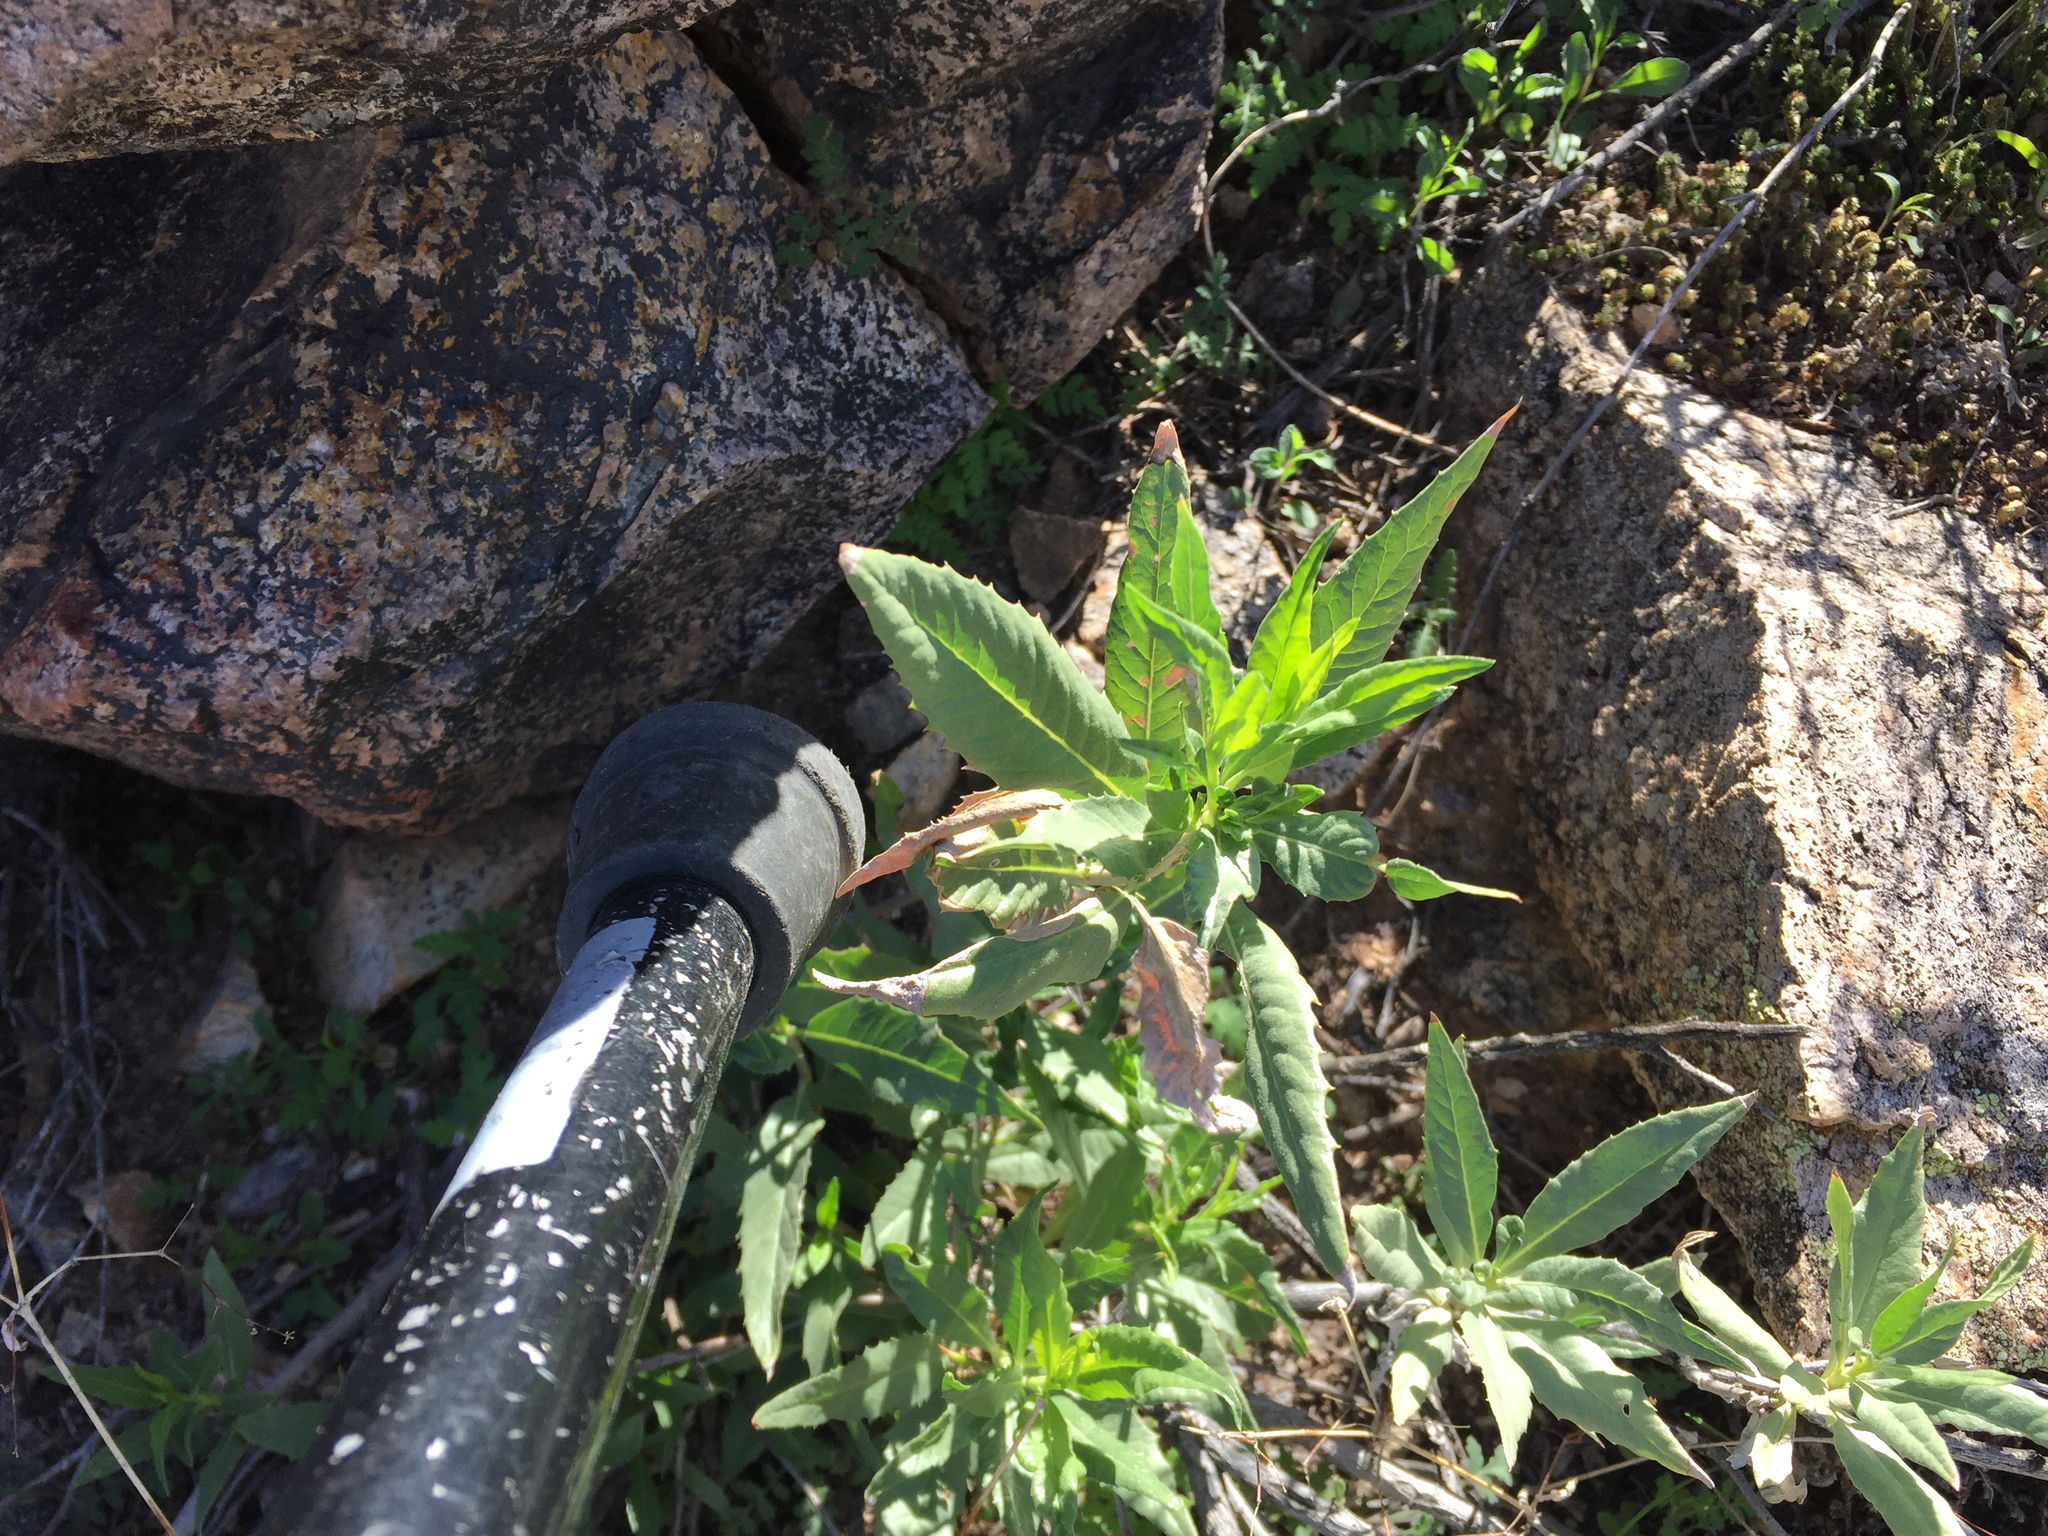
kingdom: Plantae
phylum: Tracheophyta
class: Magnoliopsida
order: Asterales
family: Asteraceae
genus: Trixis
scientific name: Trixis californica
